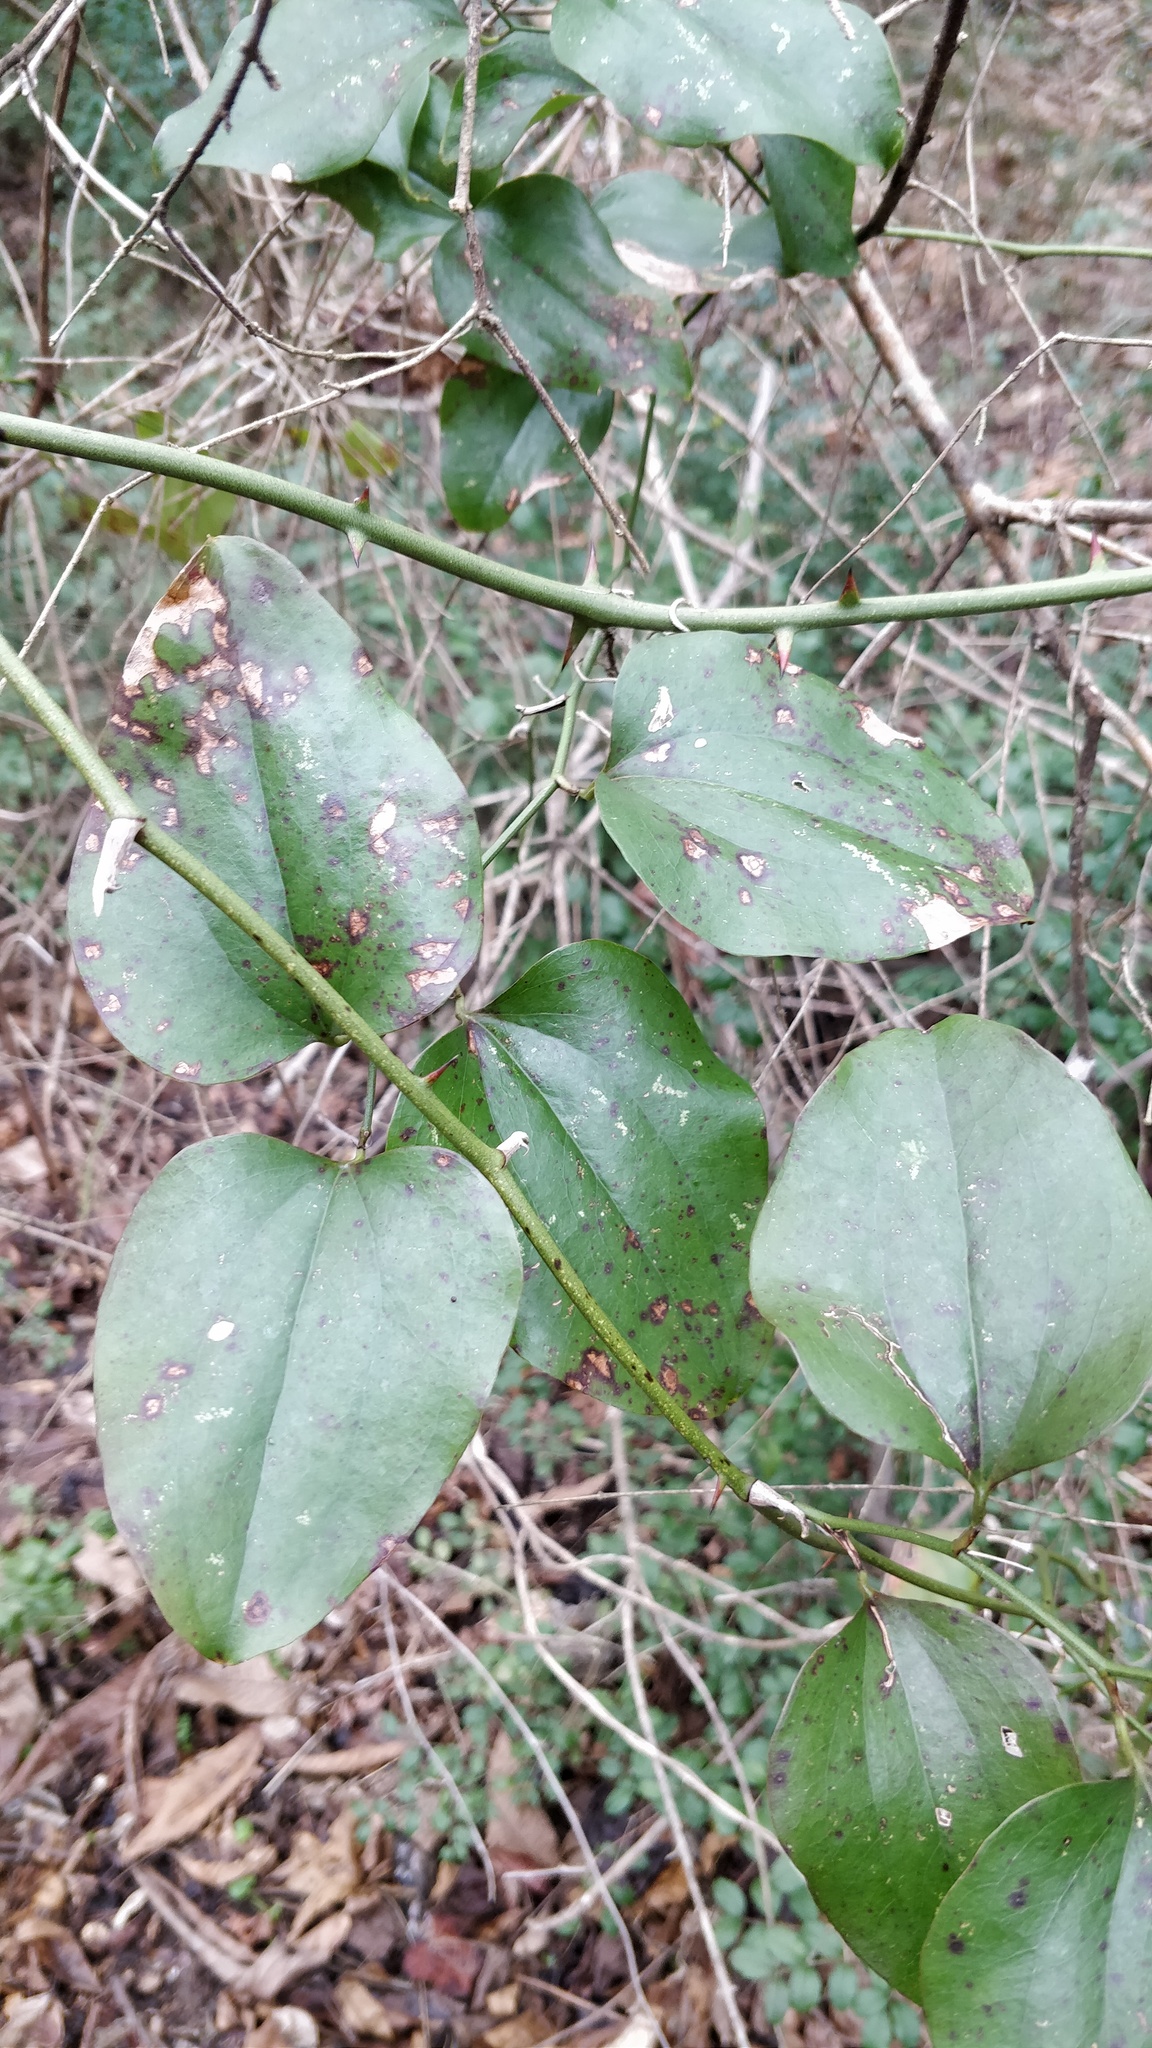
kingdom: Plantae
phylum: Tracheophyta
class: Liliopsida
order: Liliales
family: Smilacaceae
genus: Smilax
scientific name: Smilax rotundifolia
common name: Bullbriar
